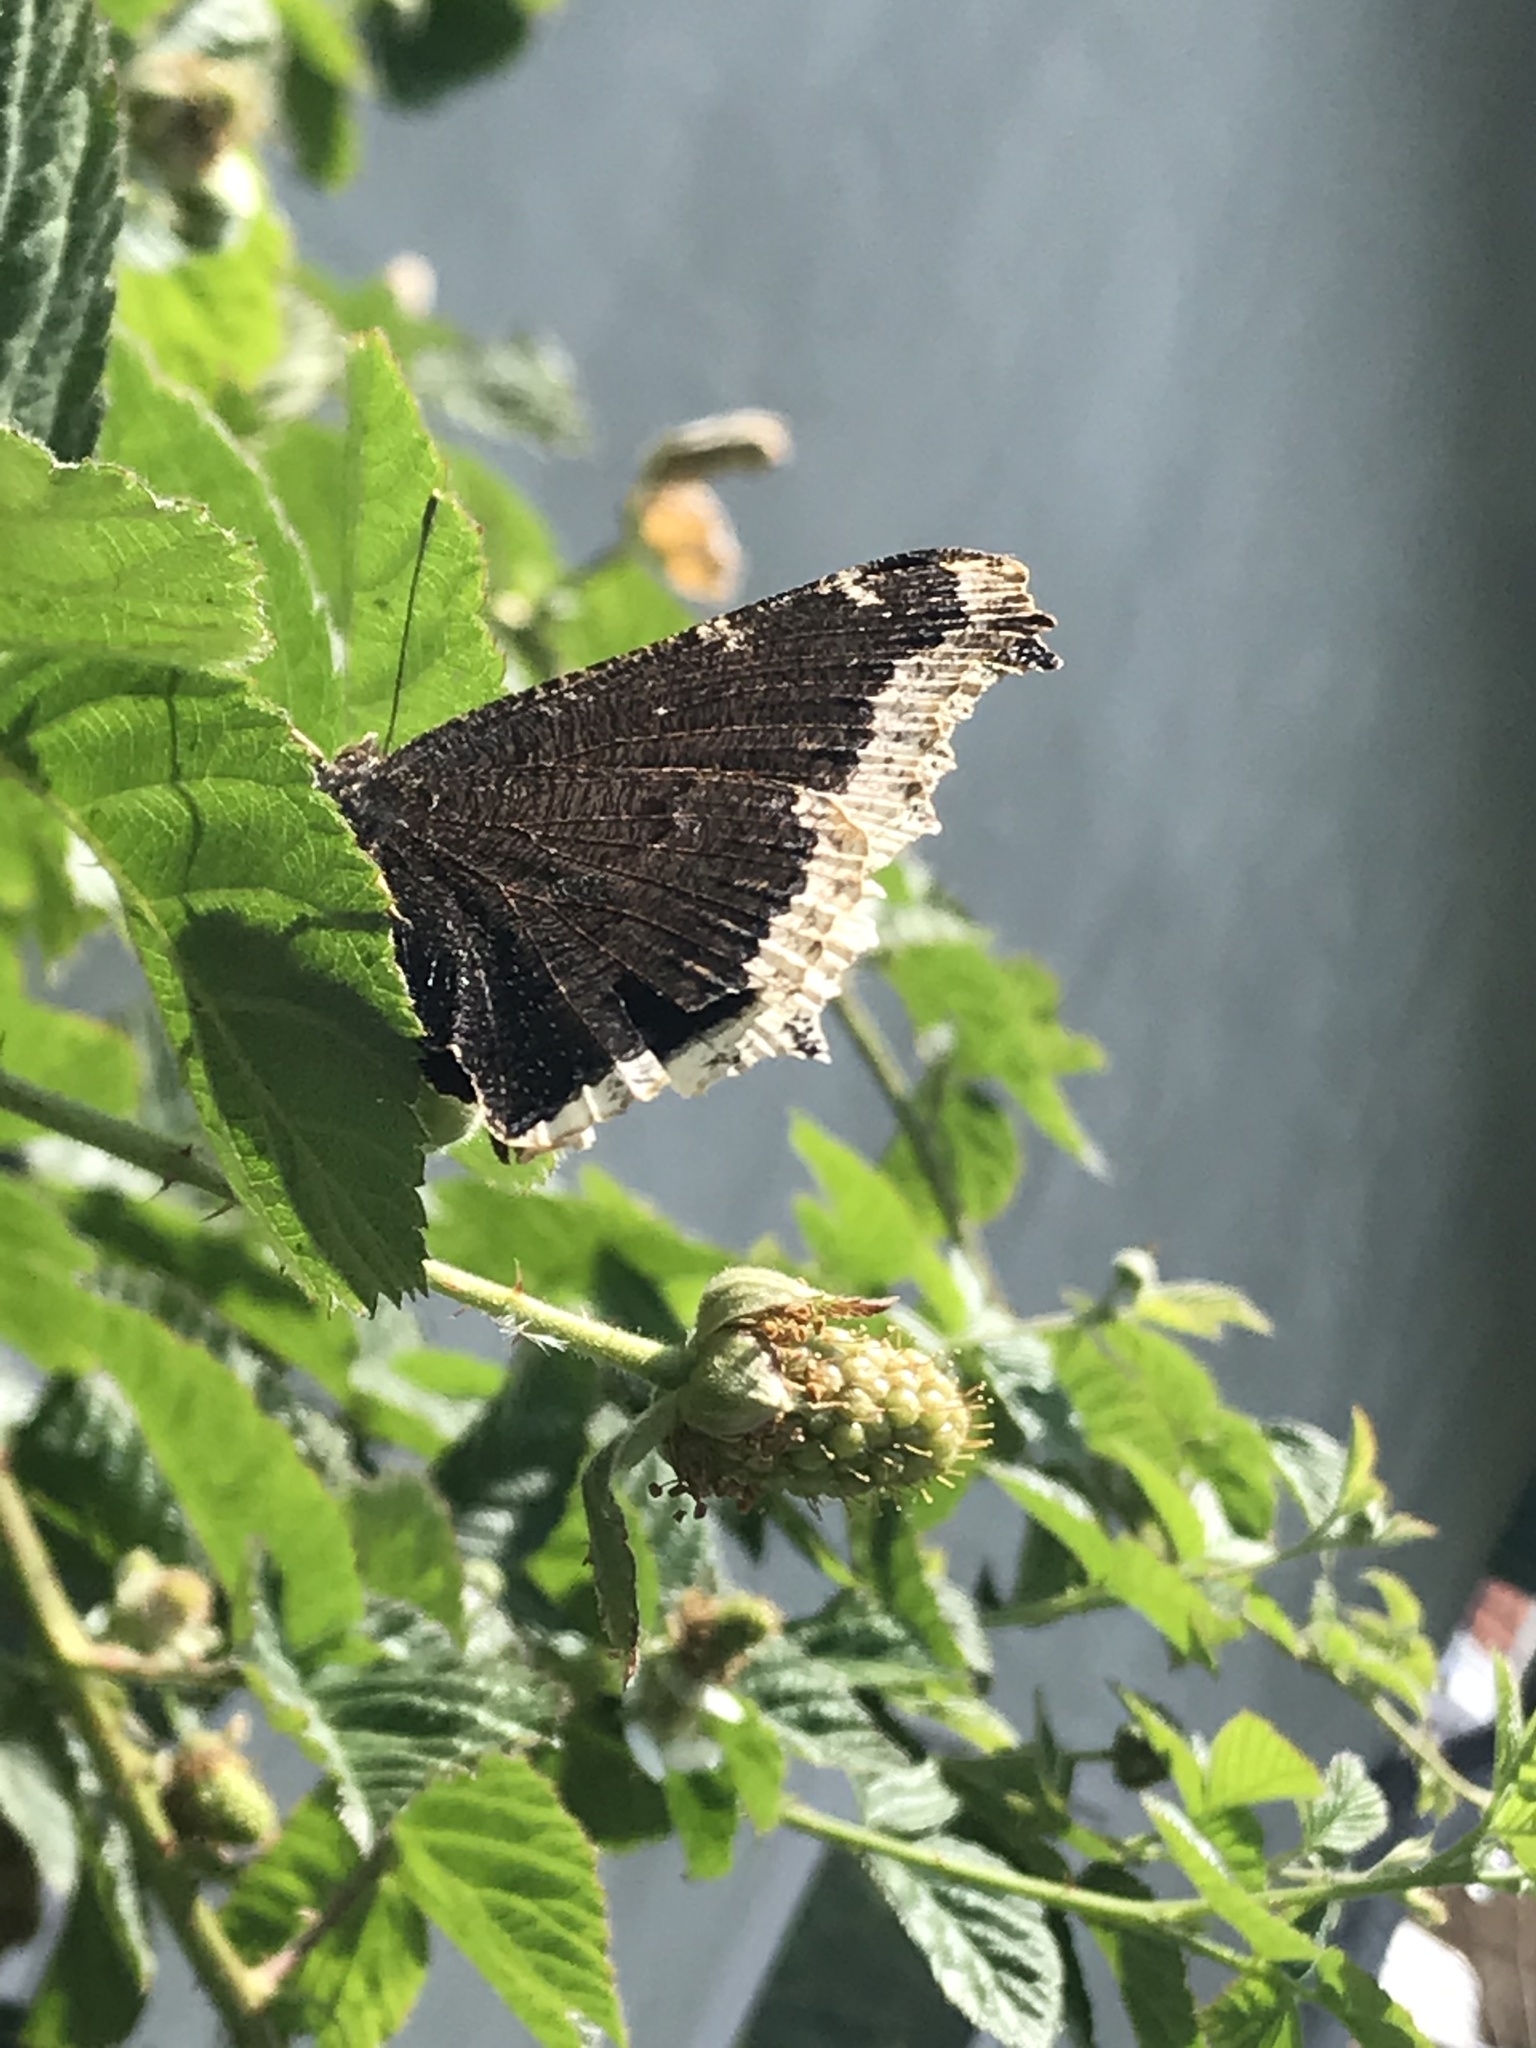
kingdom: Animalia
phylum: Arthropoda
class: Insecta
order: Lepidoptera
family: Nymphalidae
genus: Nymphalis
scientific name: Nymphalis antiopa
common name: Camberwell beauty
